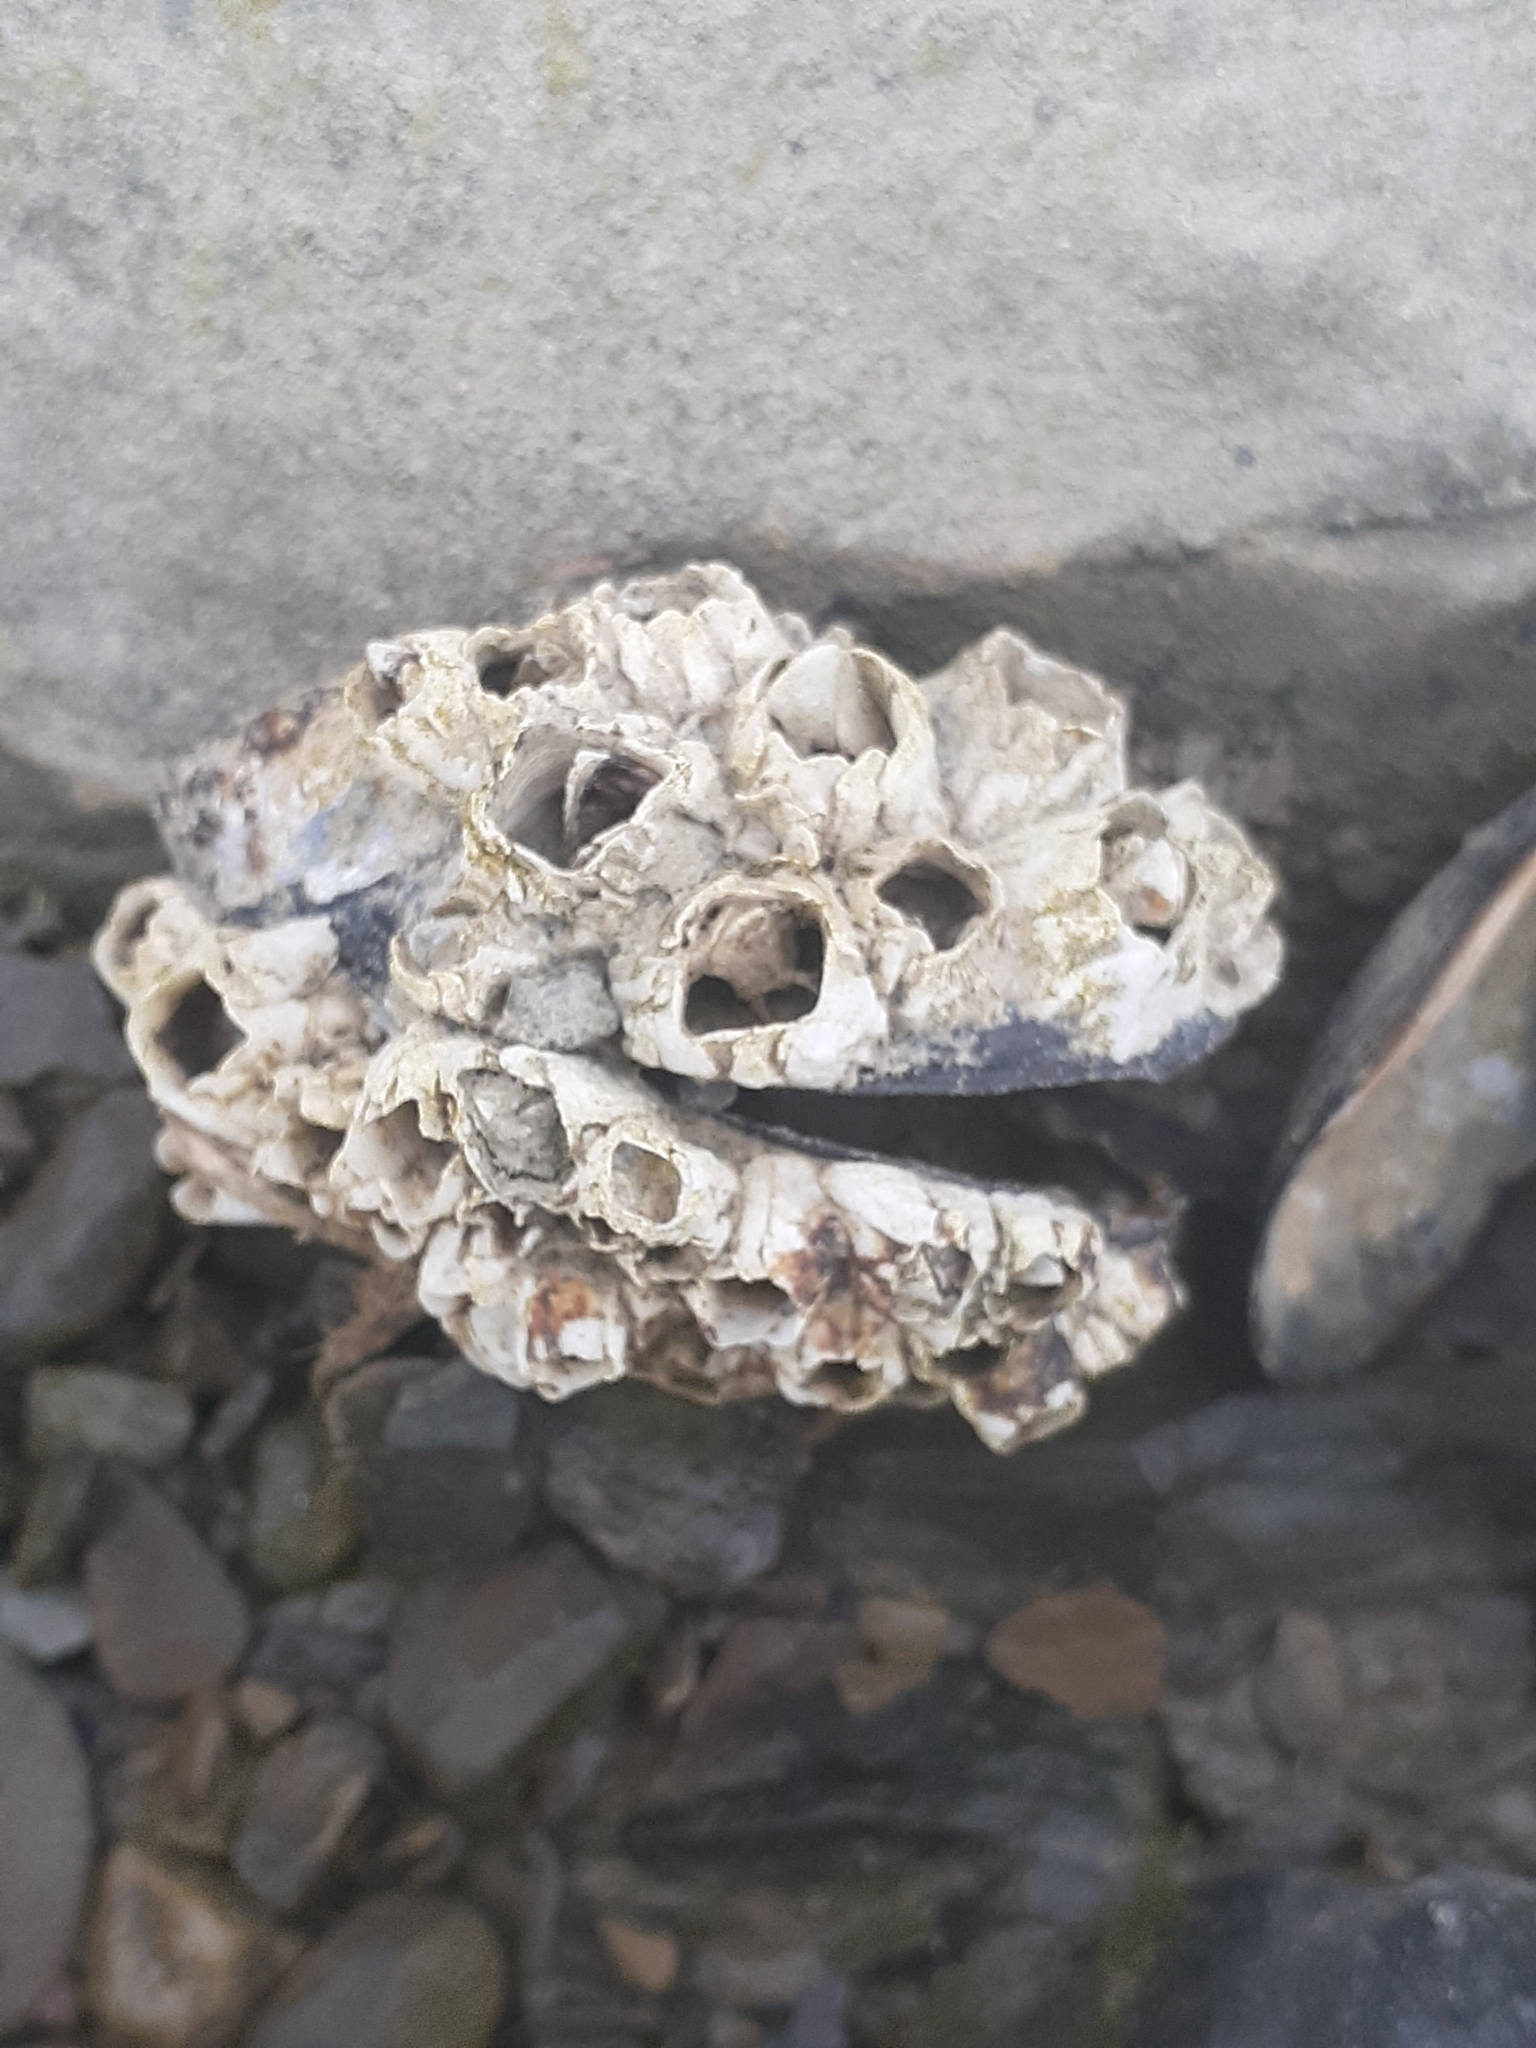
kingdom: Animalia
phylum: Arthropoda
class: Maxillopoda
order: Sessilia
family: Balanidae
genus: Balanus
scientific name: Balanus crenatus
